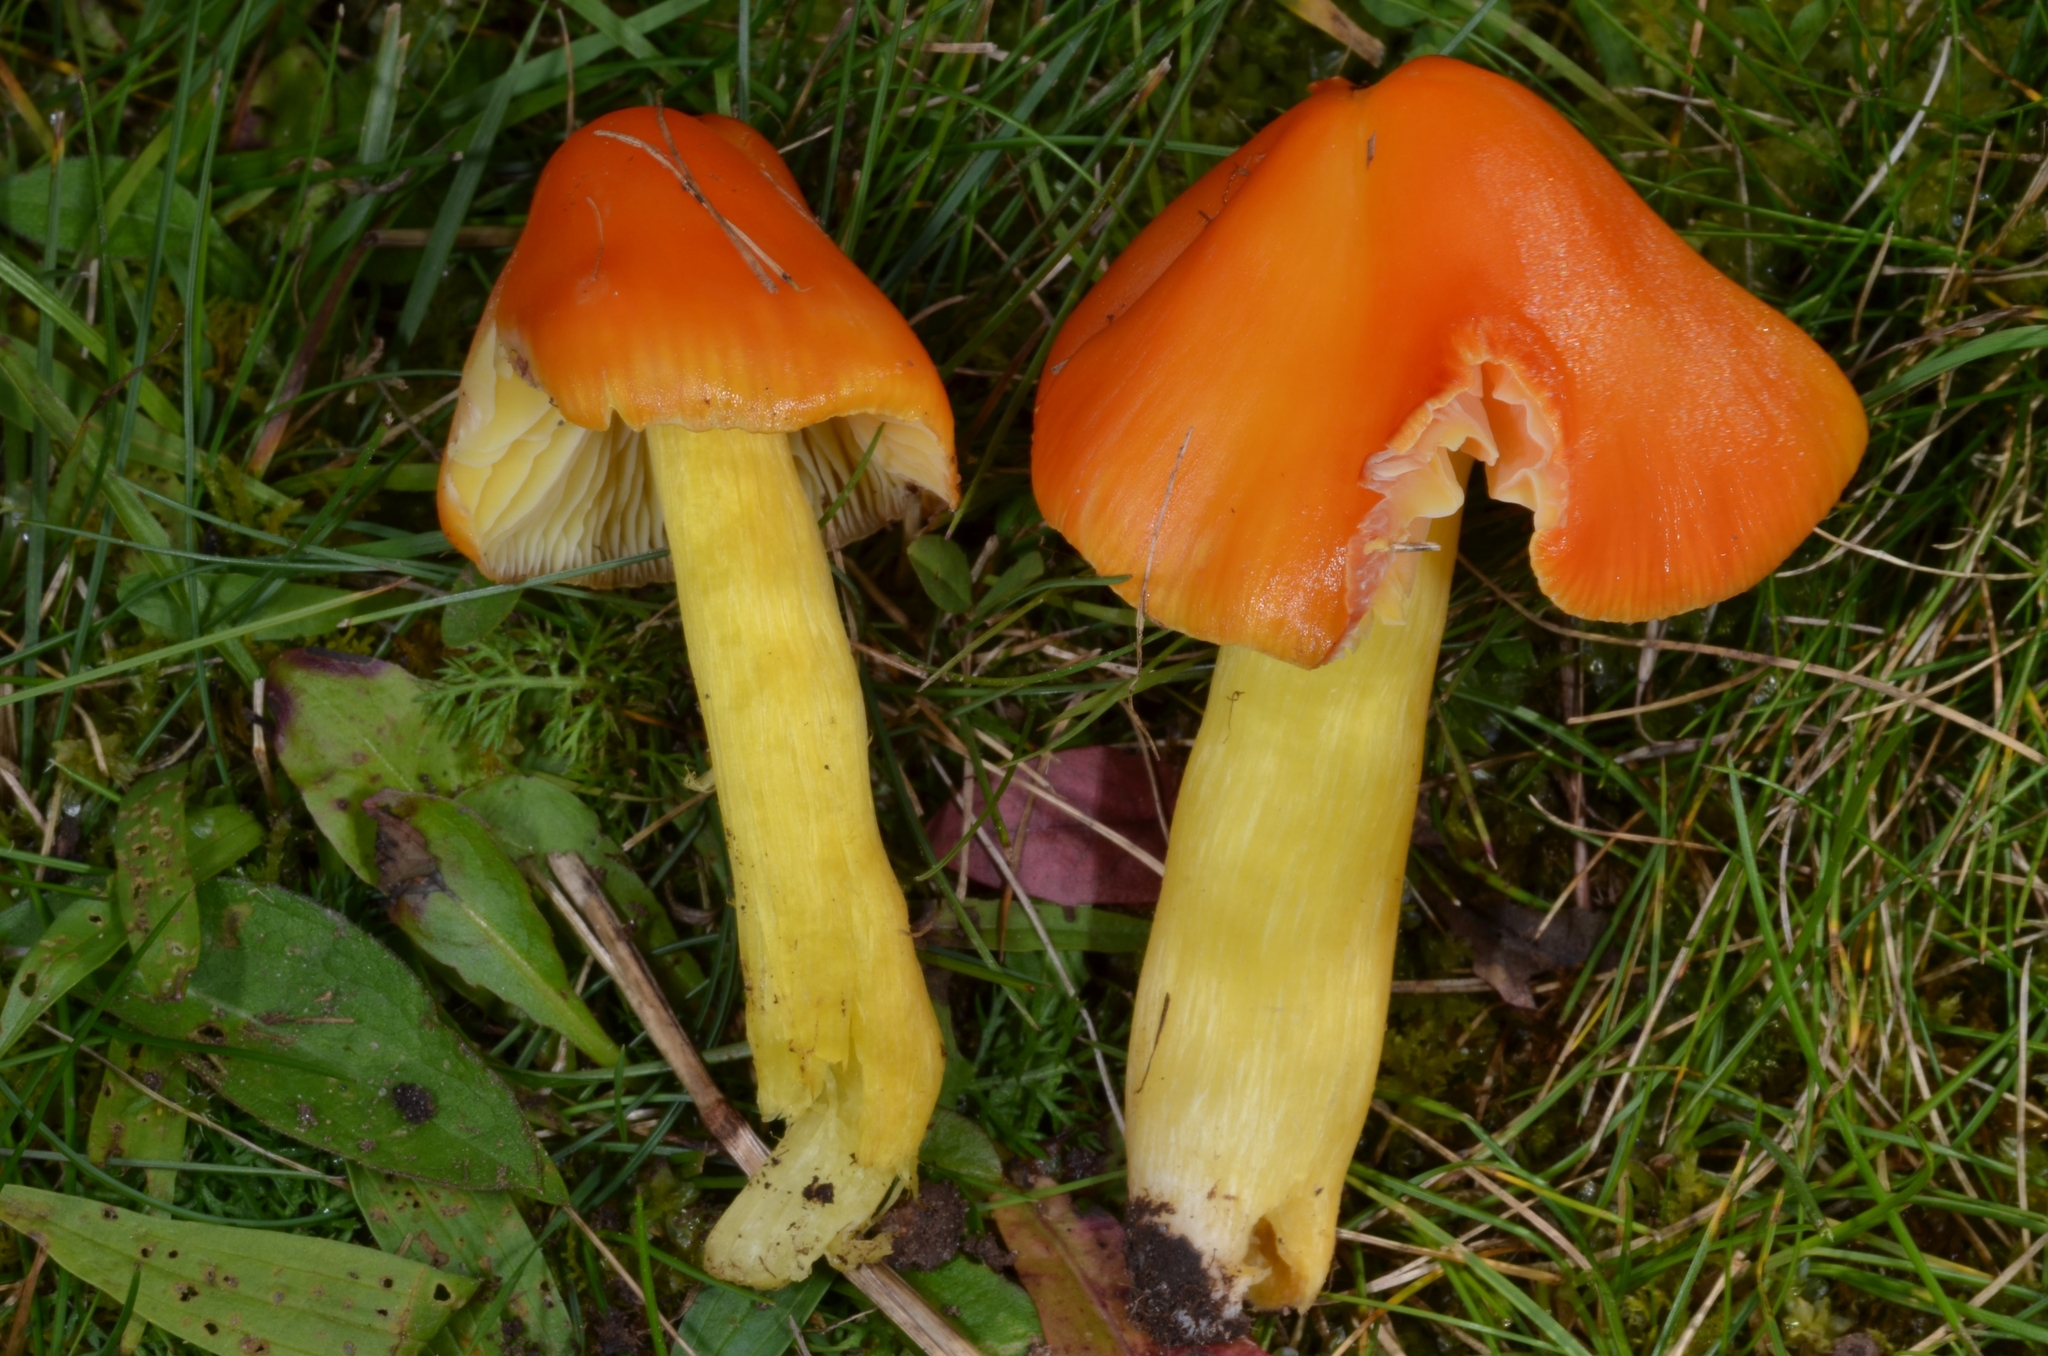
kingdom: Fungi
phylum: Basidiomycota
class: Agaricomycetes
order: Agaricales
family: Hygrophoraceae
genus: Hygrocybe
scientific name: Hygrocybe acutoconica
